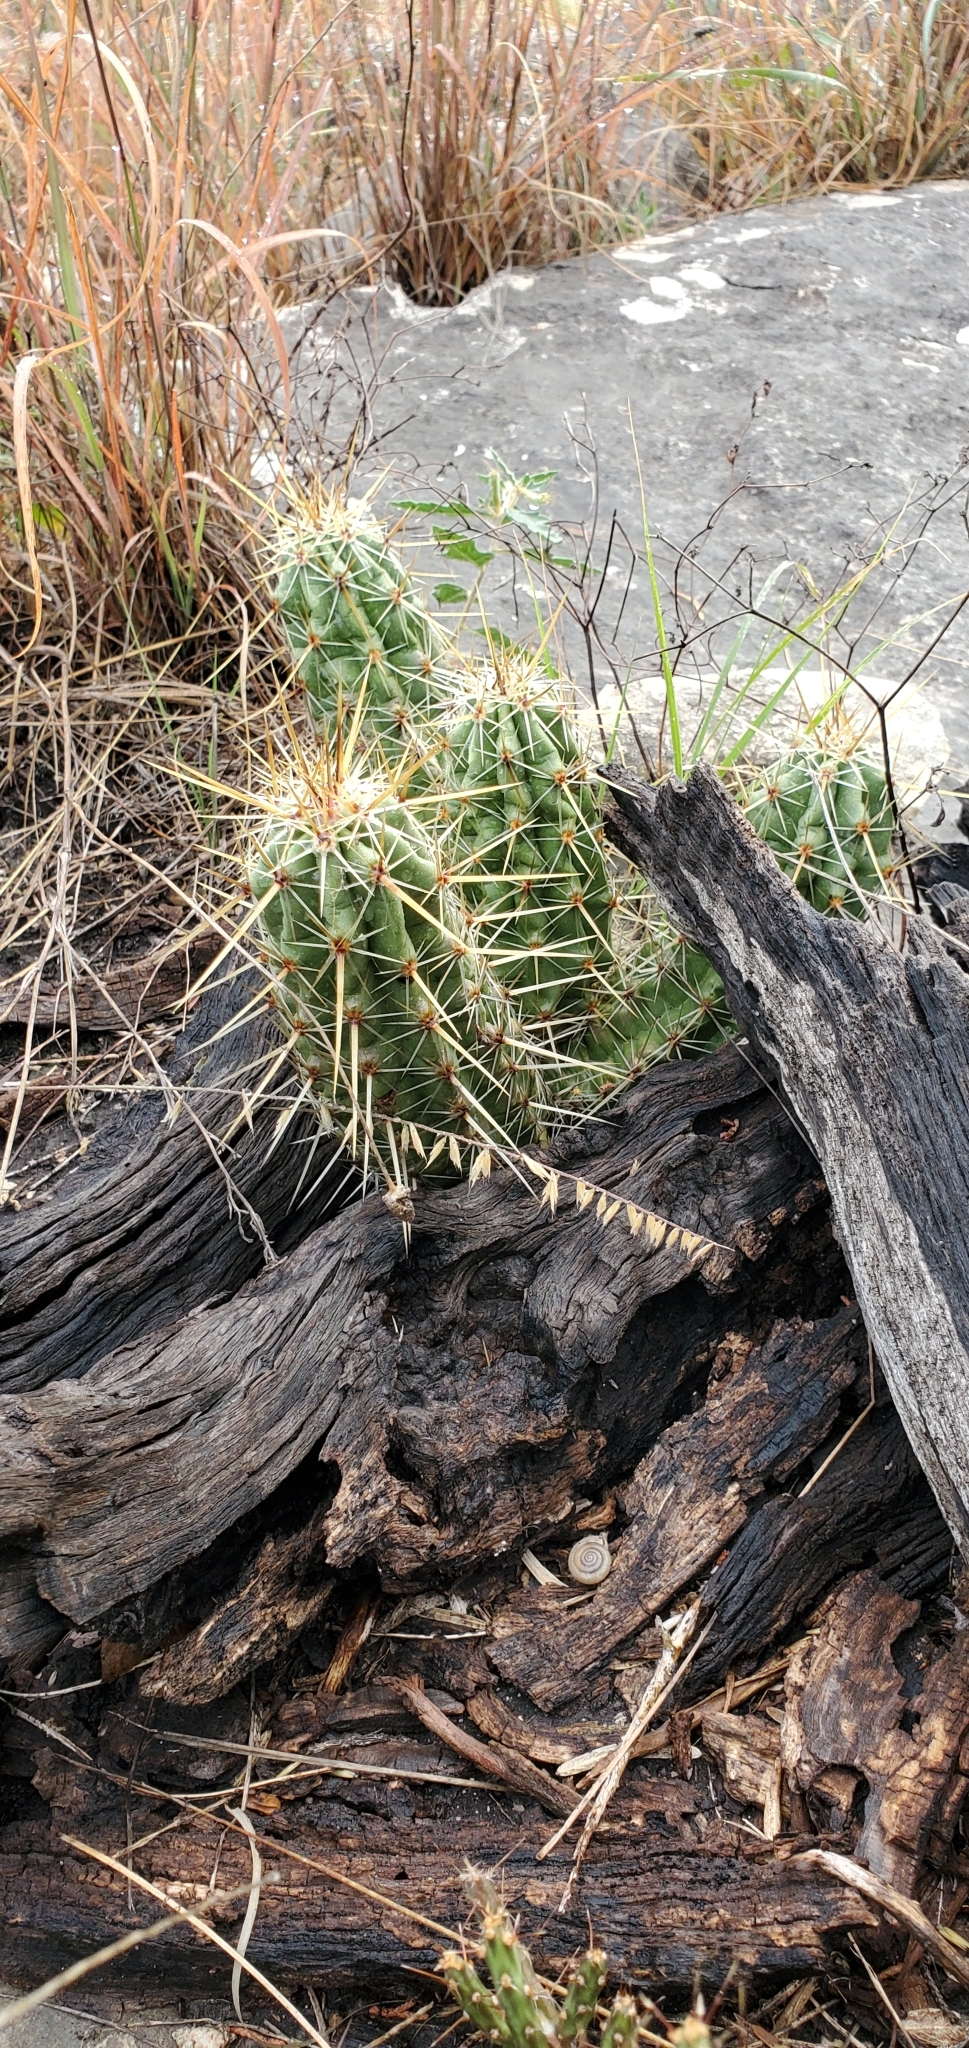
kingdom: Plantae
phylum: Tracheophyta
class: Magnoliopsida
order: Caryophyllales
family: Cactaceae
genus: Echinocereus
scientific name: Echinocereus enneacanthus
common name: Pitaya
